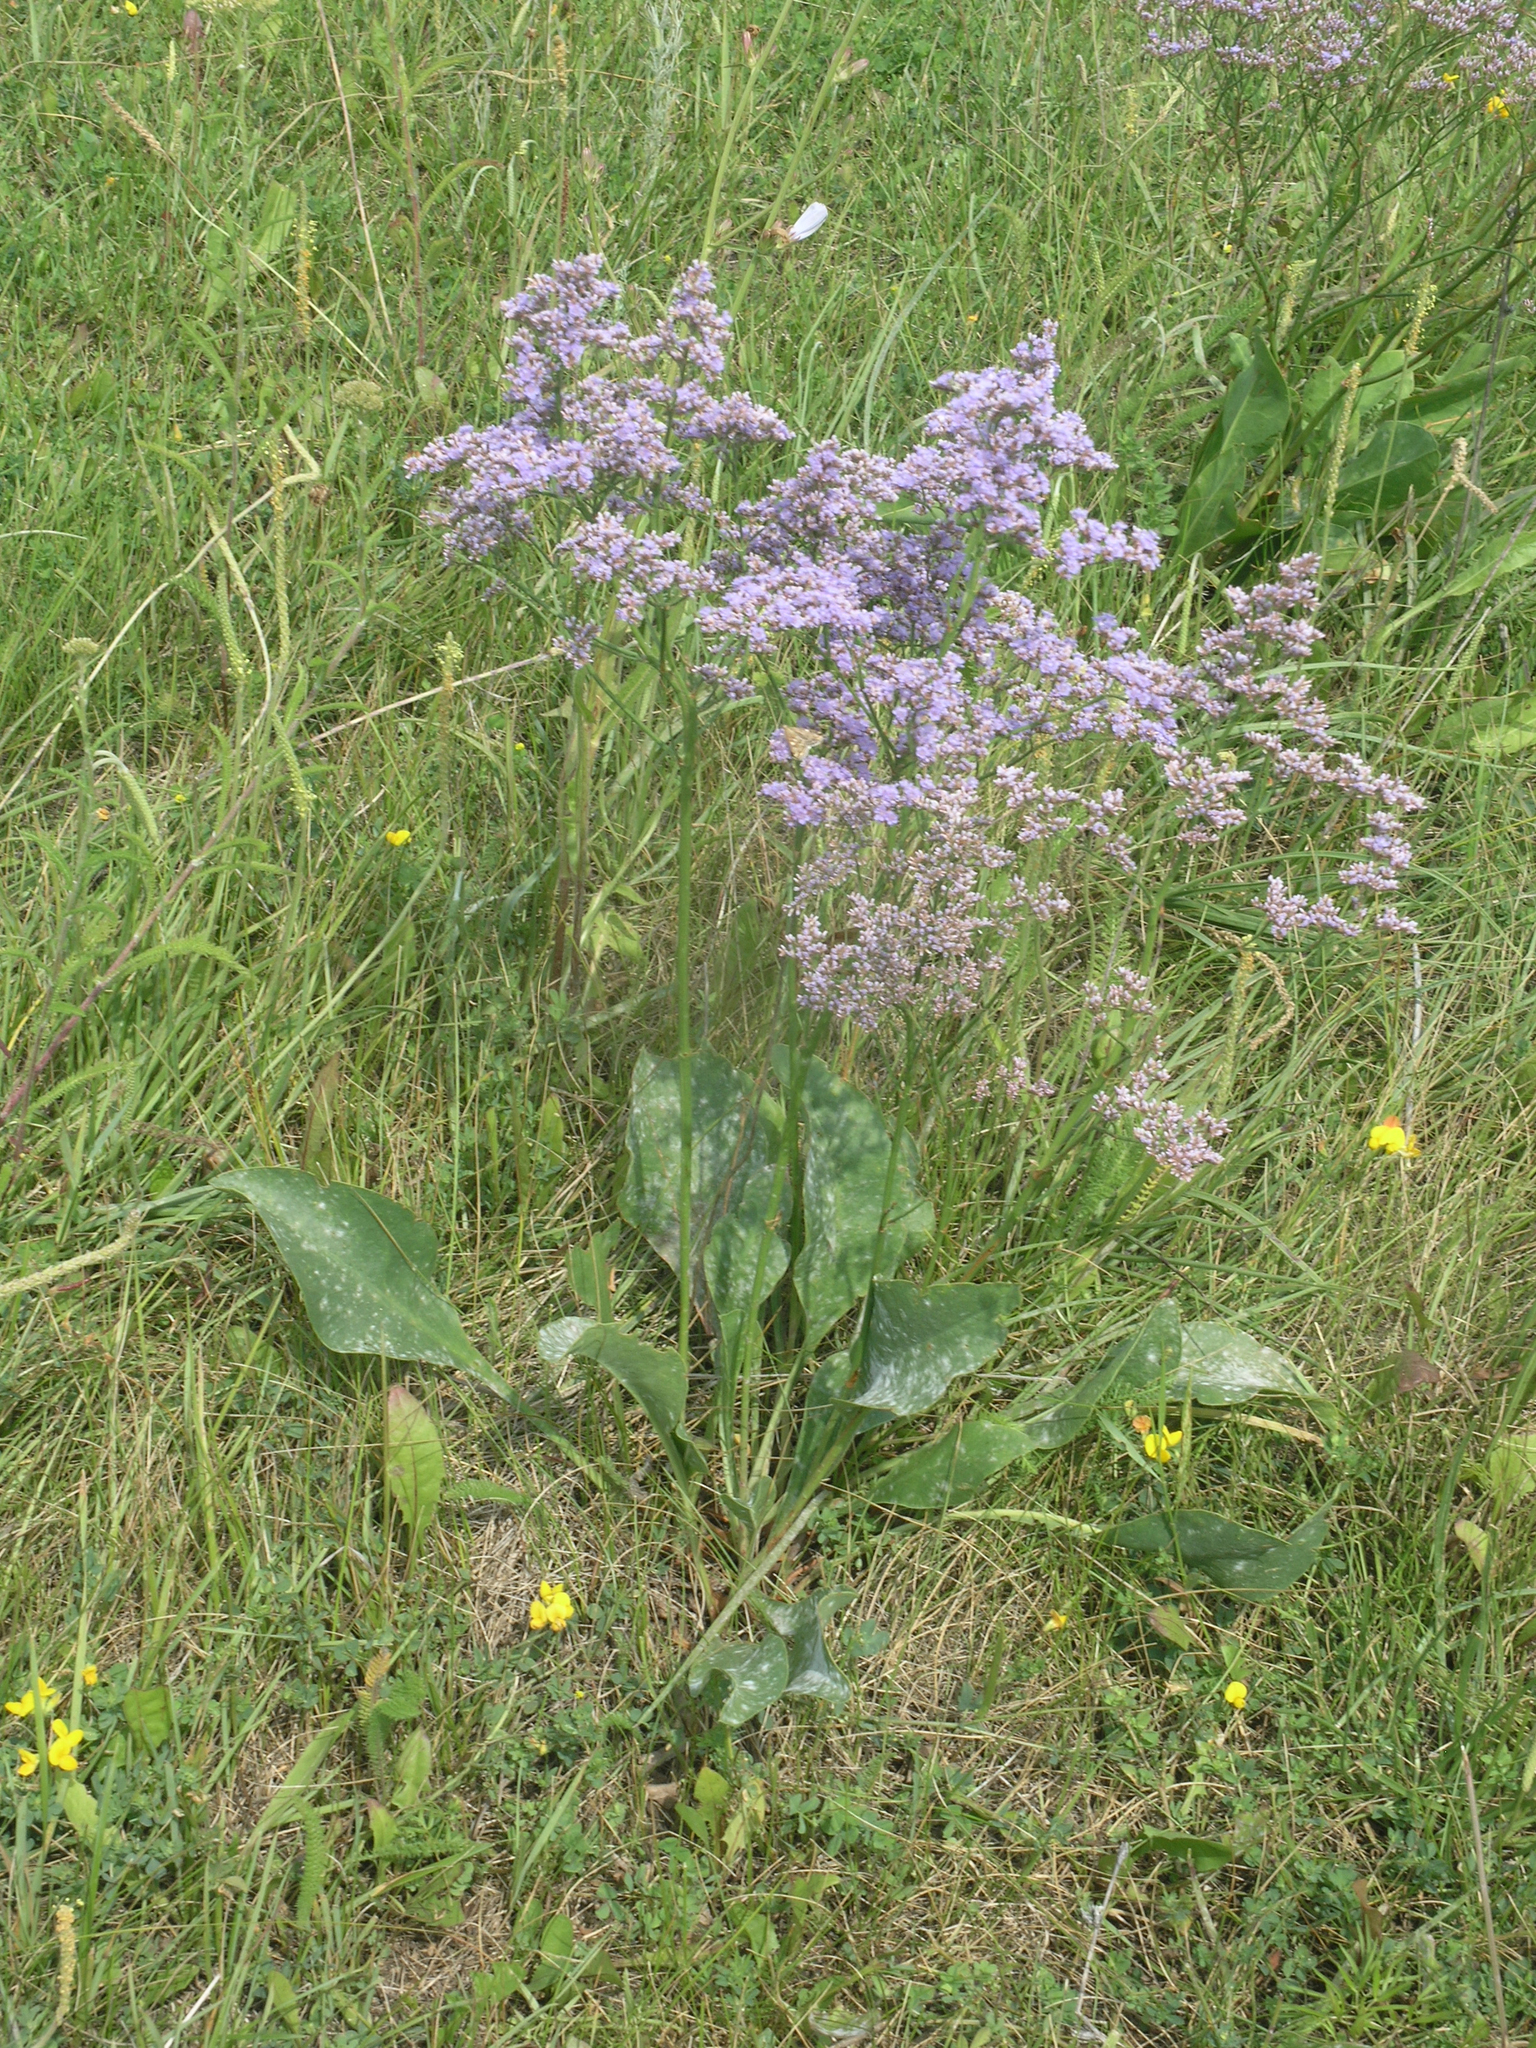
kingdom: Plantae
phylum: Tracheophyta
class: Magnoliopsida
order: Caryophyllales
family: Plumbaginaceae
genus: Limonium
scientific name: Limonium gmelini
